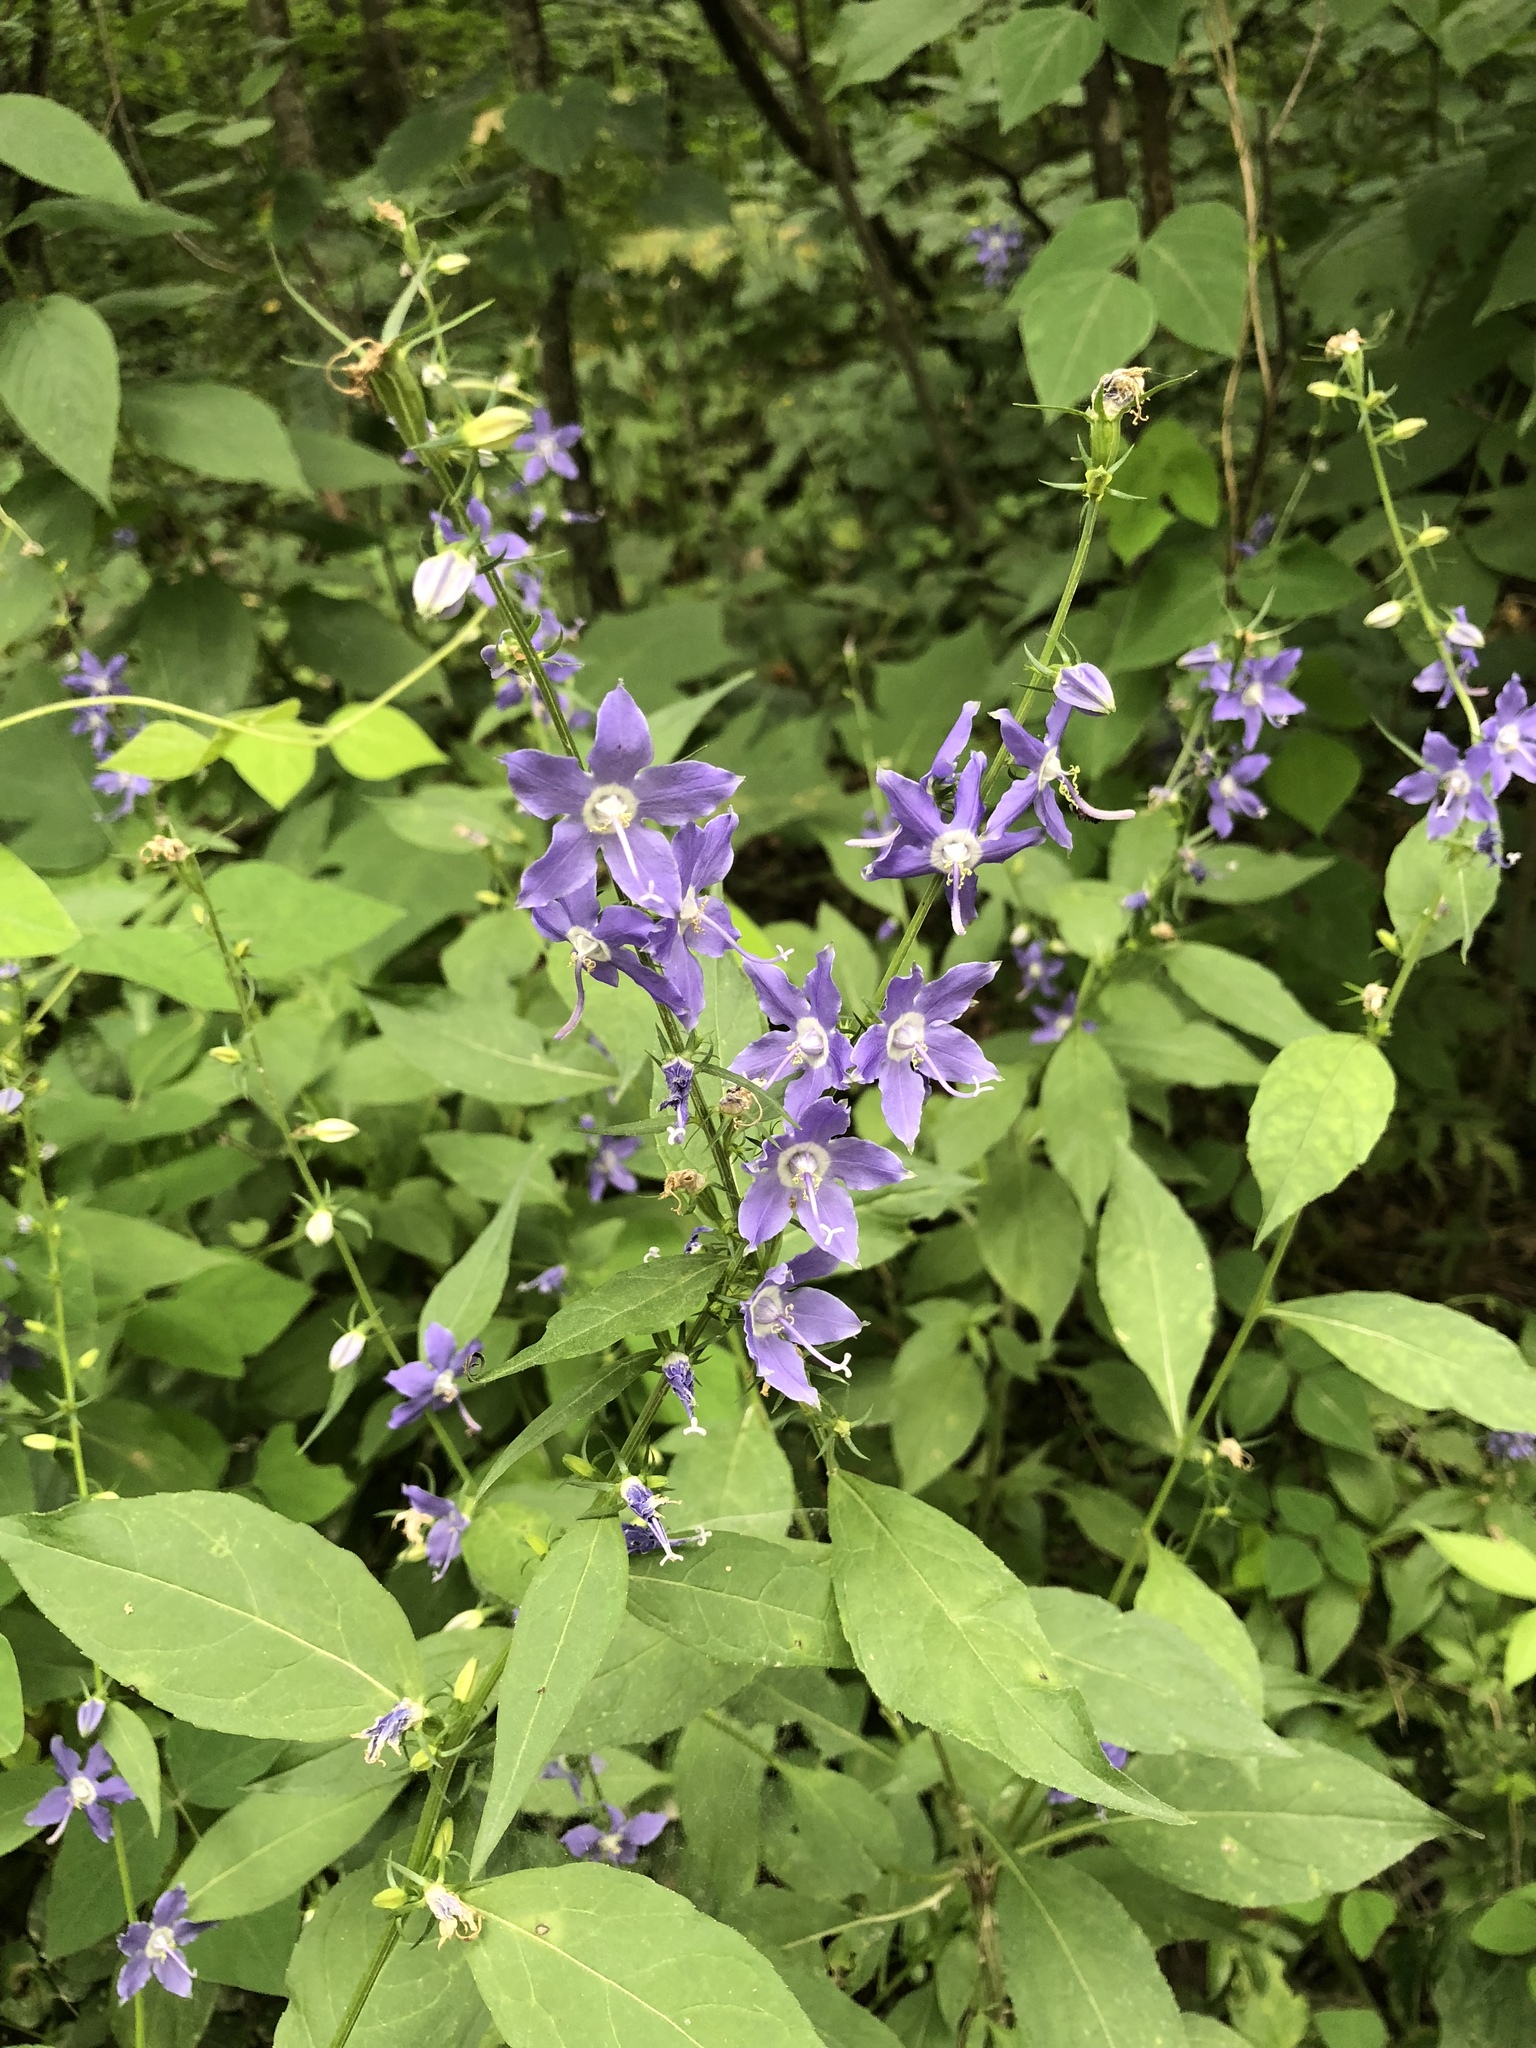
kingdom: Plantae
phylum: Tracheophyta
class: Magnoliopsida
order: Asterales
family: Campanulaceae
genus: Campanulastrum
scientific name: Campanulastrum americanum
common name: American bellflower
